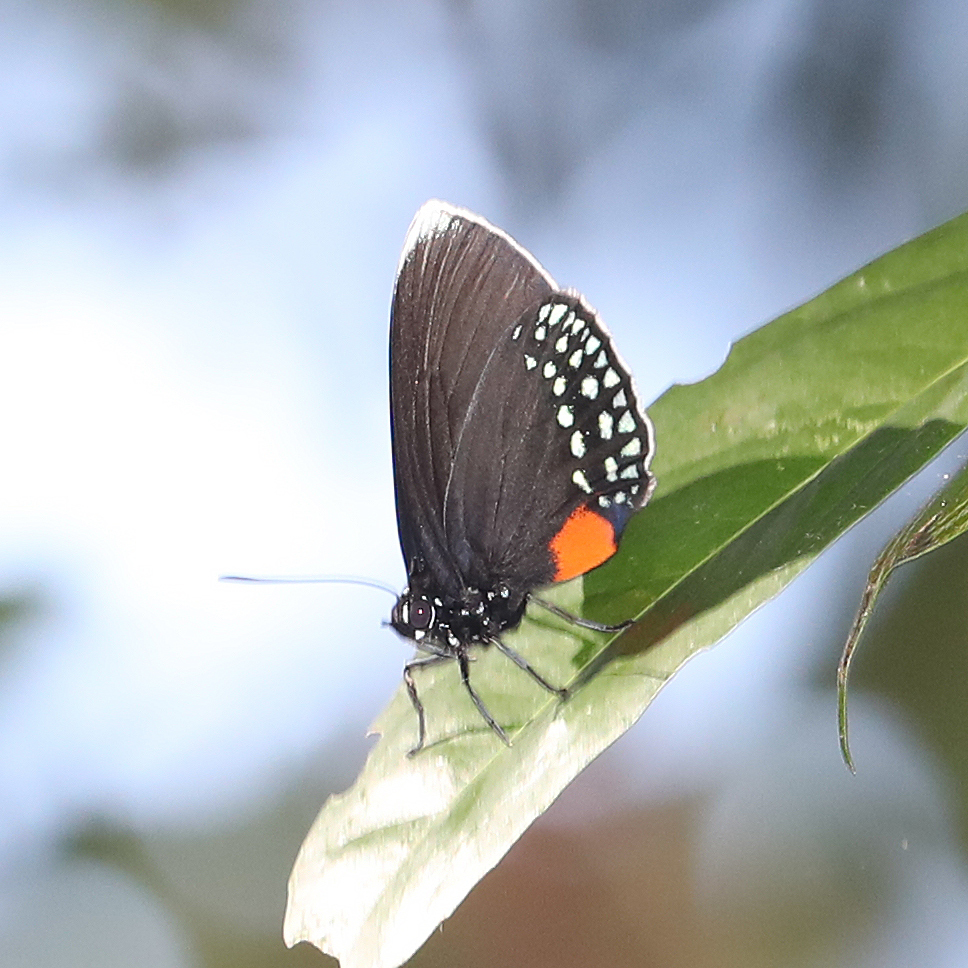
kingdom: Animalia
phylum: Arthropoda
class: Insecta
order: Lepidoptera
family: Lycaenidae
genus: Eumaeus
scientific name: Eumaeus godartii
